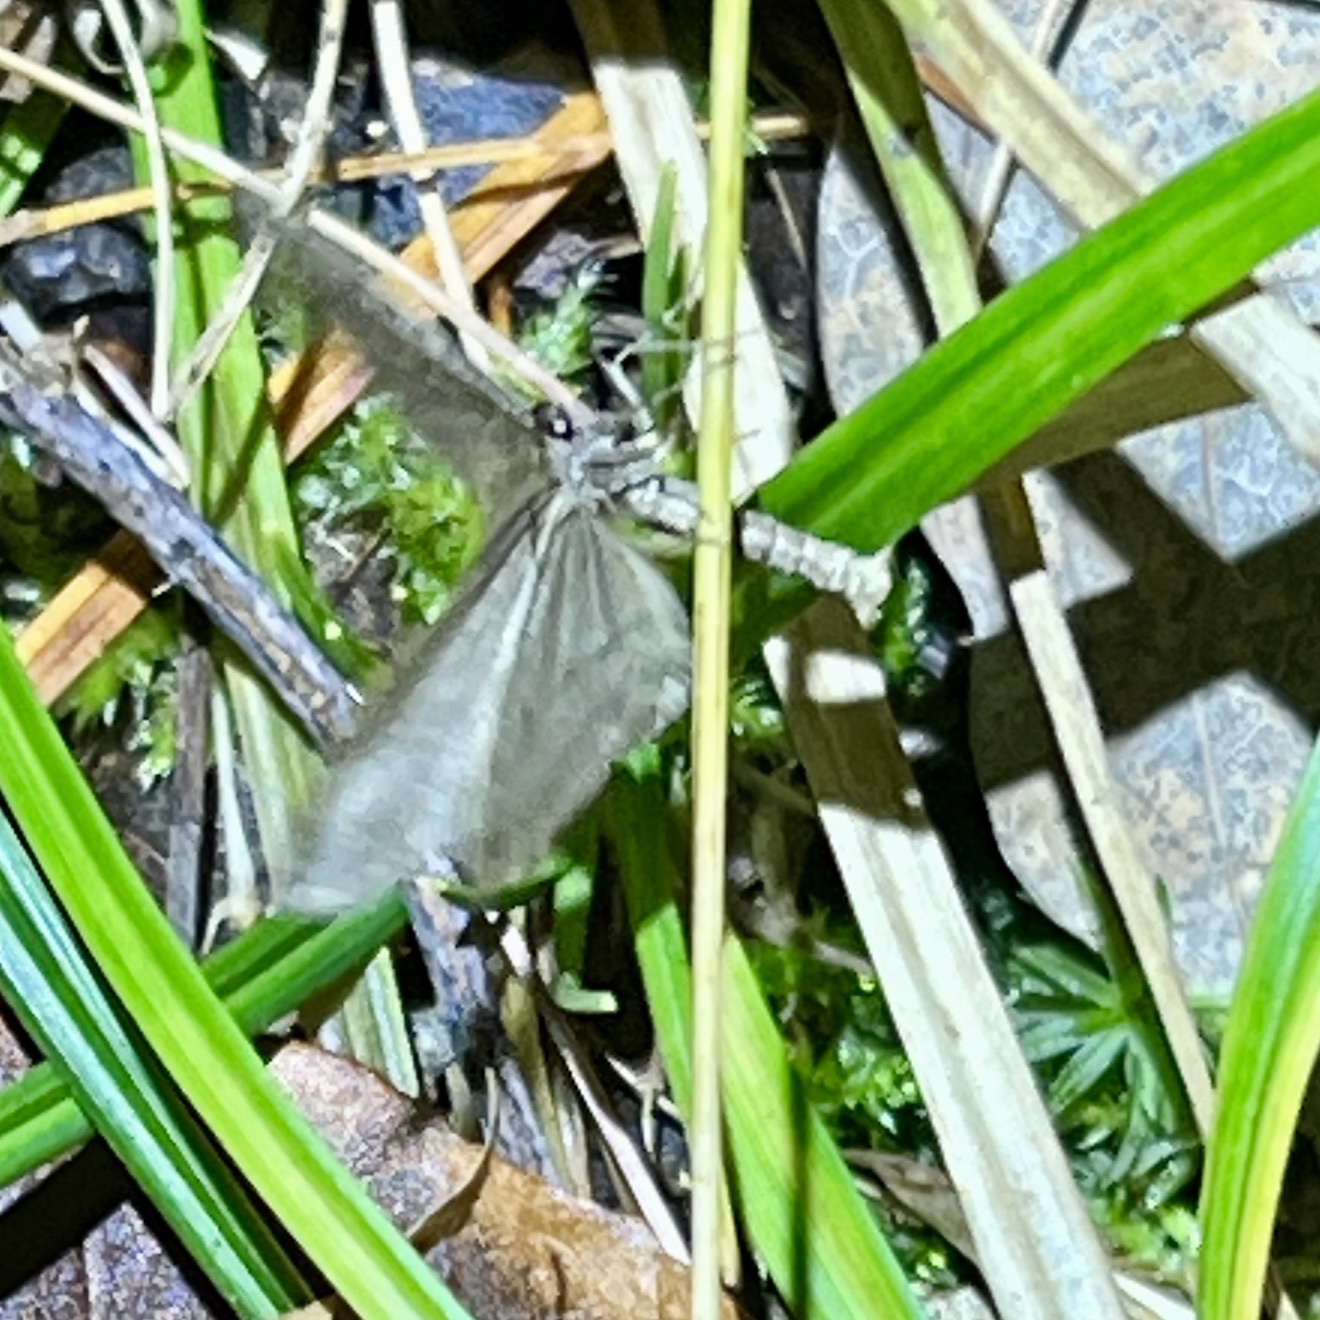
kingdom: Animalia
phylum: Arthropoda
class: Insecta
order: Lepidoptera
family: Geometridae
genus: Operophtera
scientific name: Operophtera bruceata
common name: Bruce spanworm
